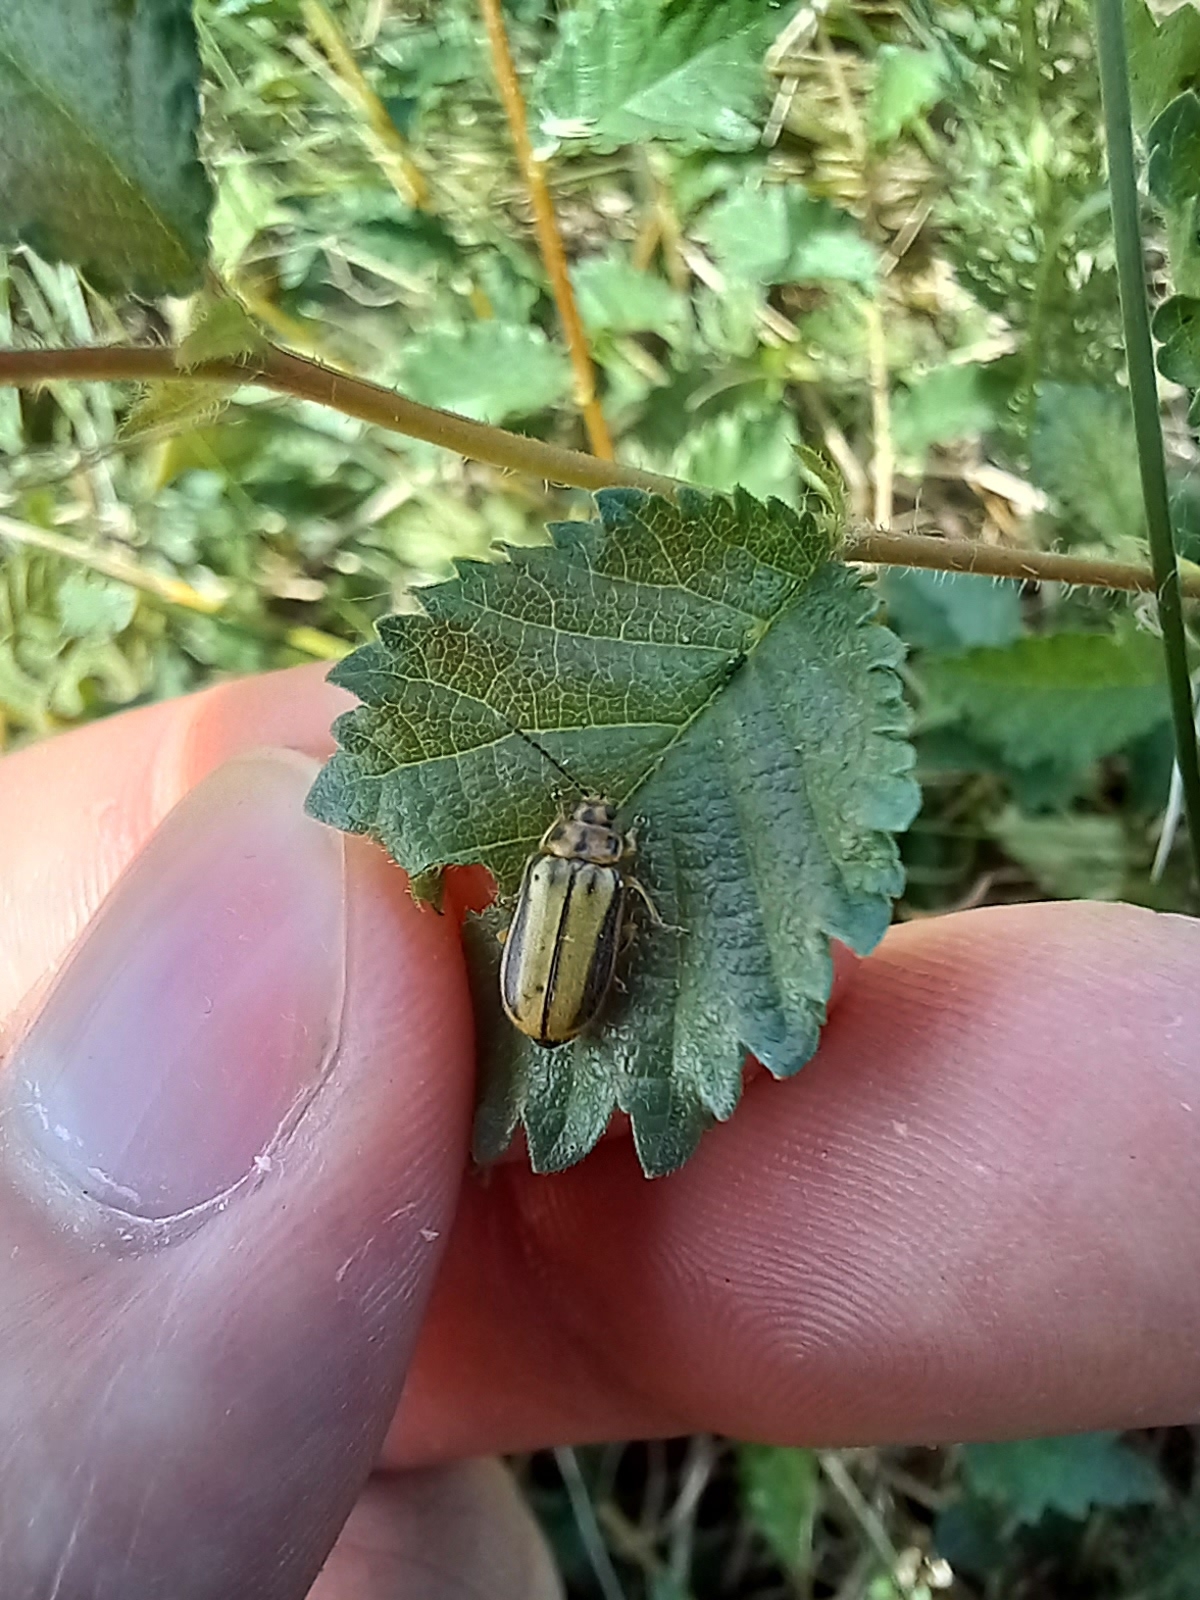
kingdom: Animalia
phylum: Arthropoda
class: Insecta
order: Coleoptera
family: Chrysomelidae
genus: Xanthogaleruca
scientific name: Xanthogaleruca luteola
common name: Elm leaf beetle
